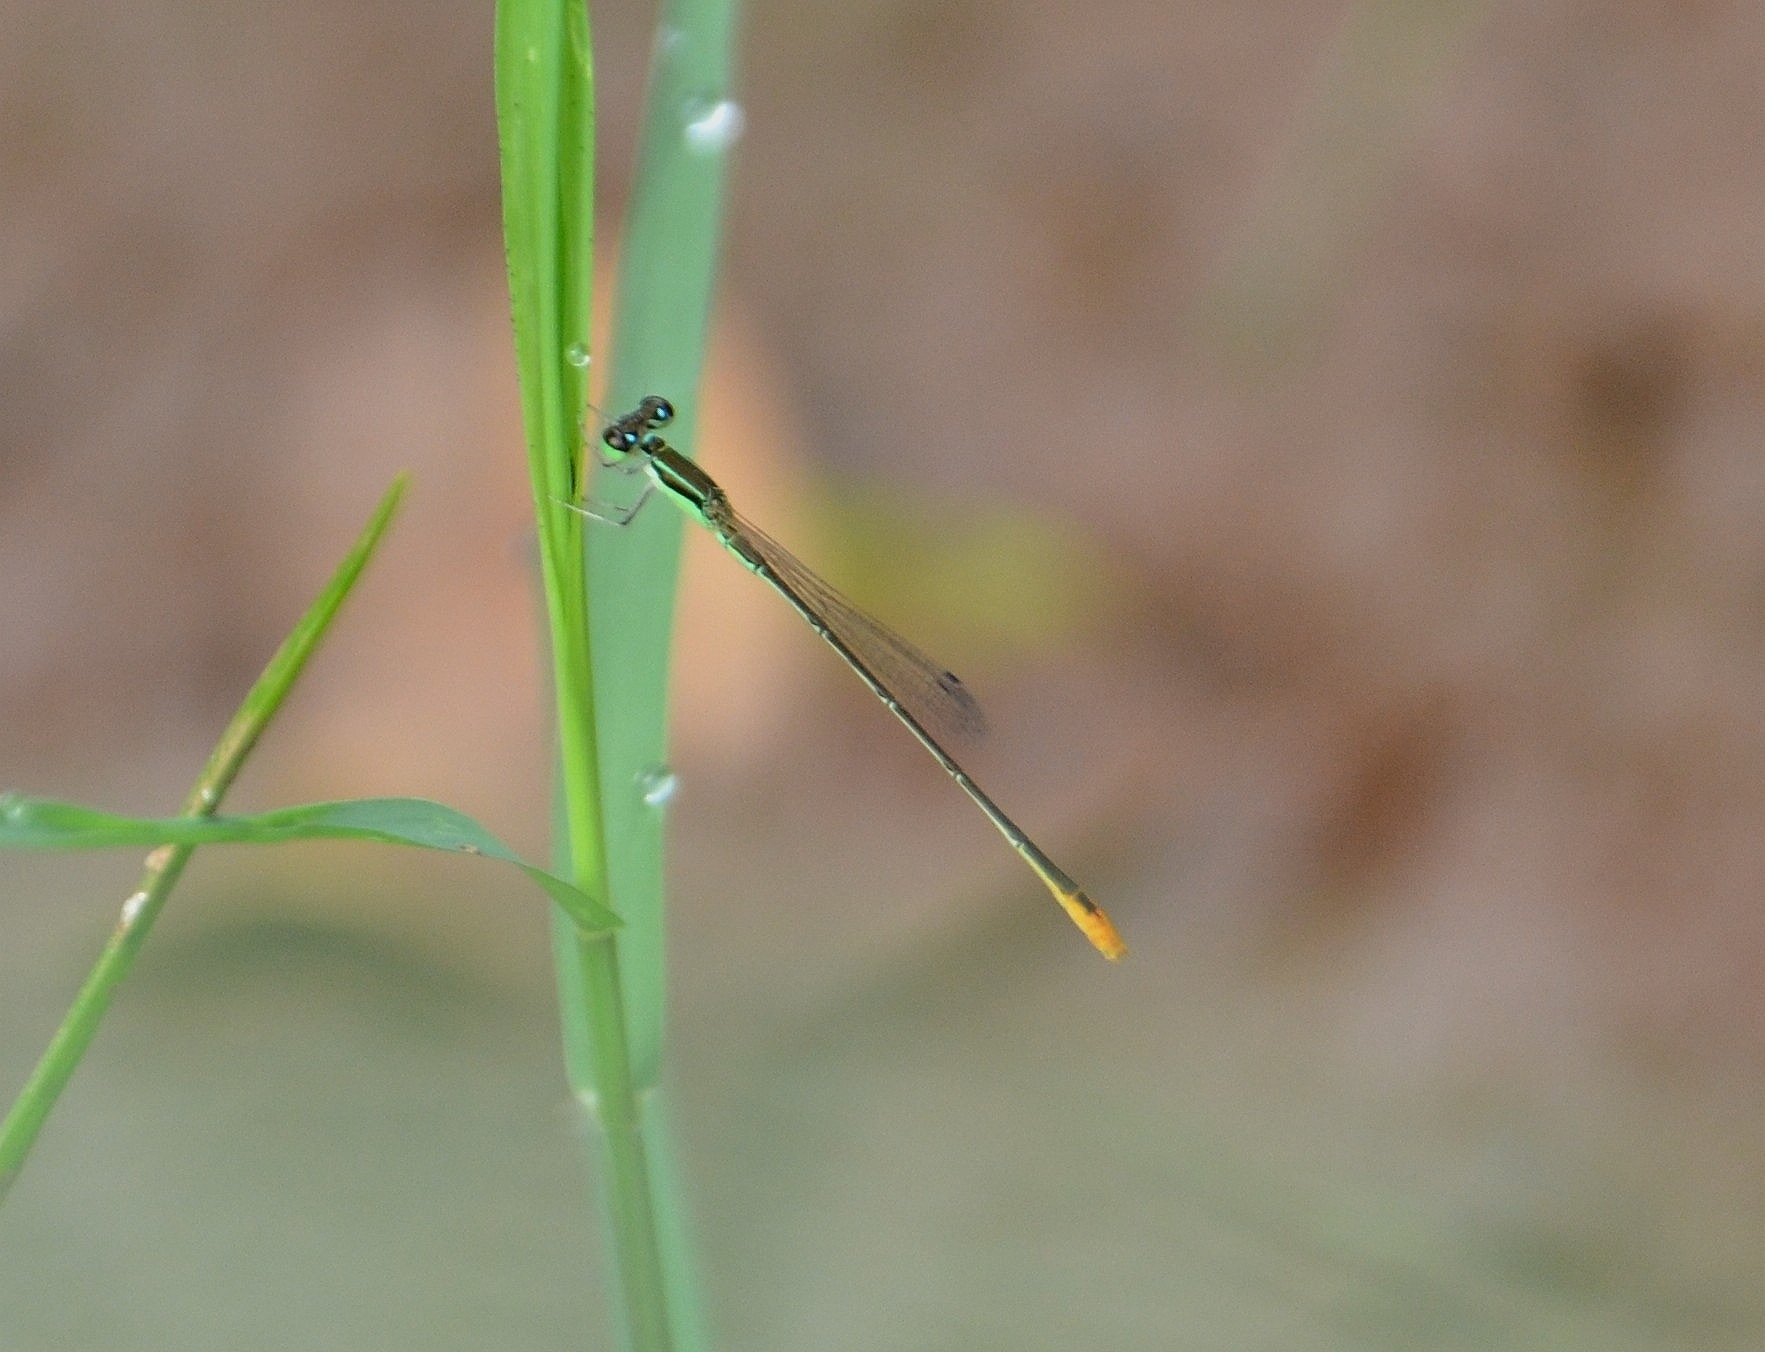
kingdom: Animalia
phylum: Arthropoda
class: Insecta
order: Odonata
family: Coenagrionidae
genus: Agriocnemis
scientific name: Agriocnemis pygmaea
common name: Pygmy wisp
